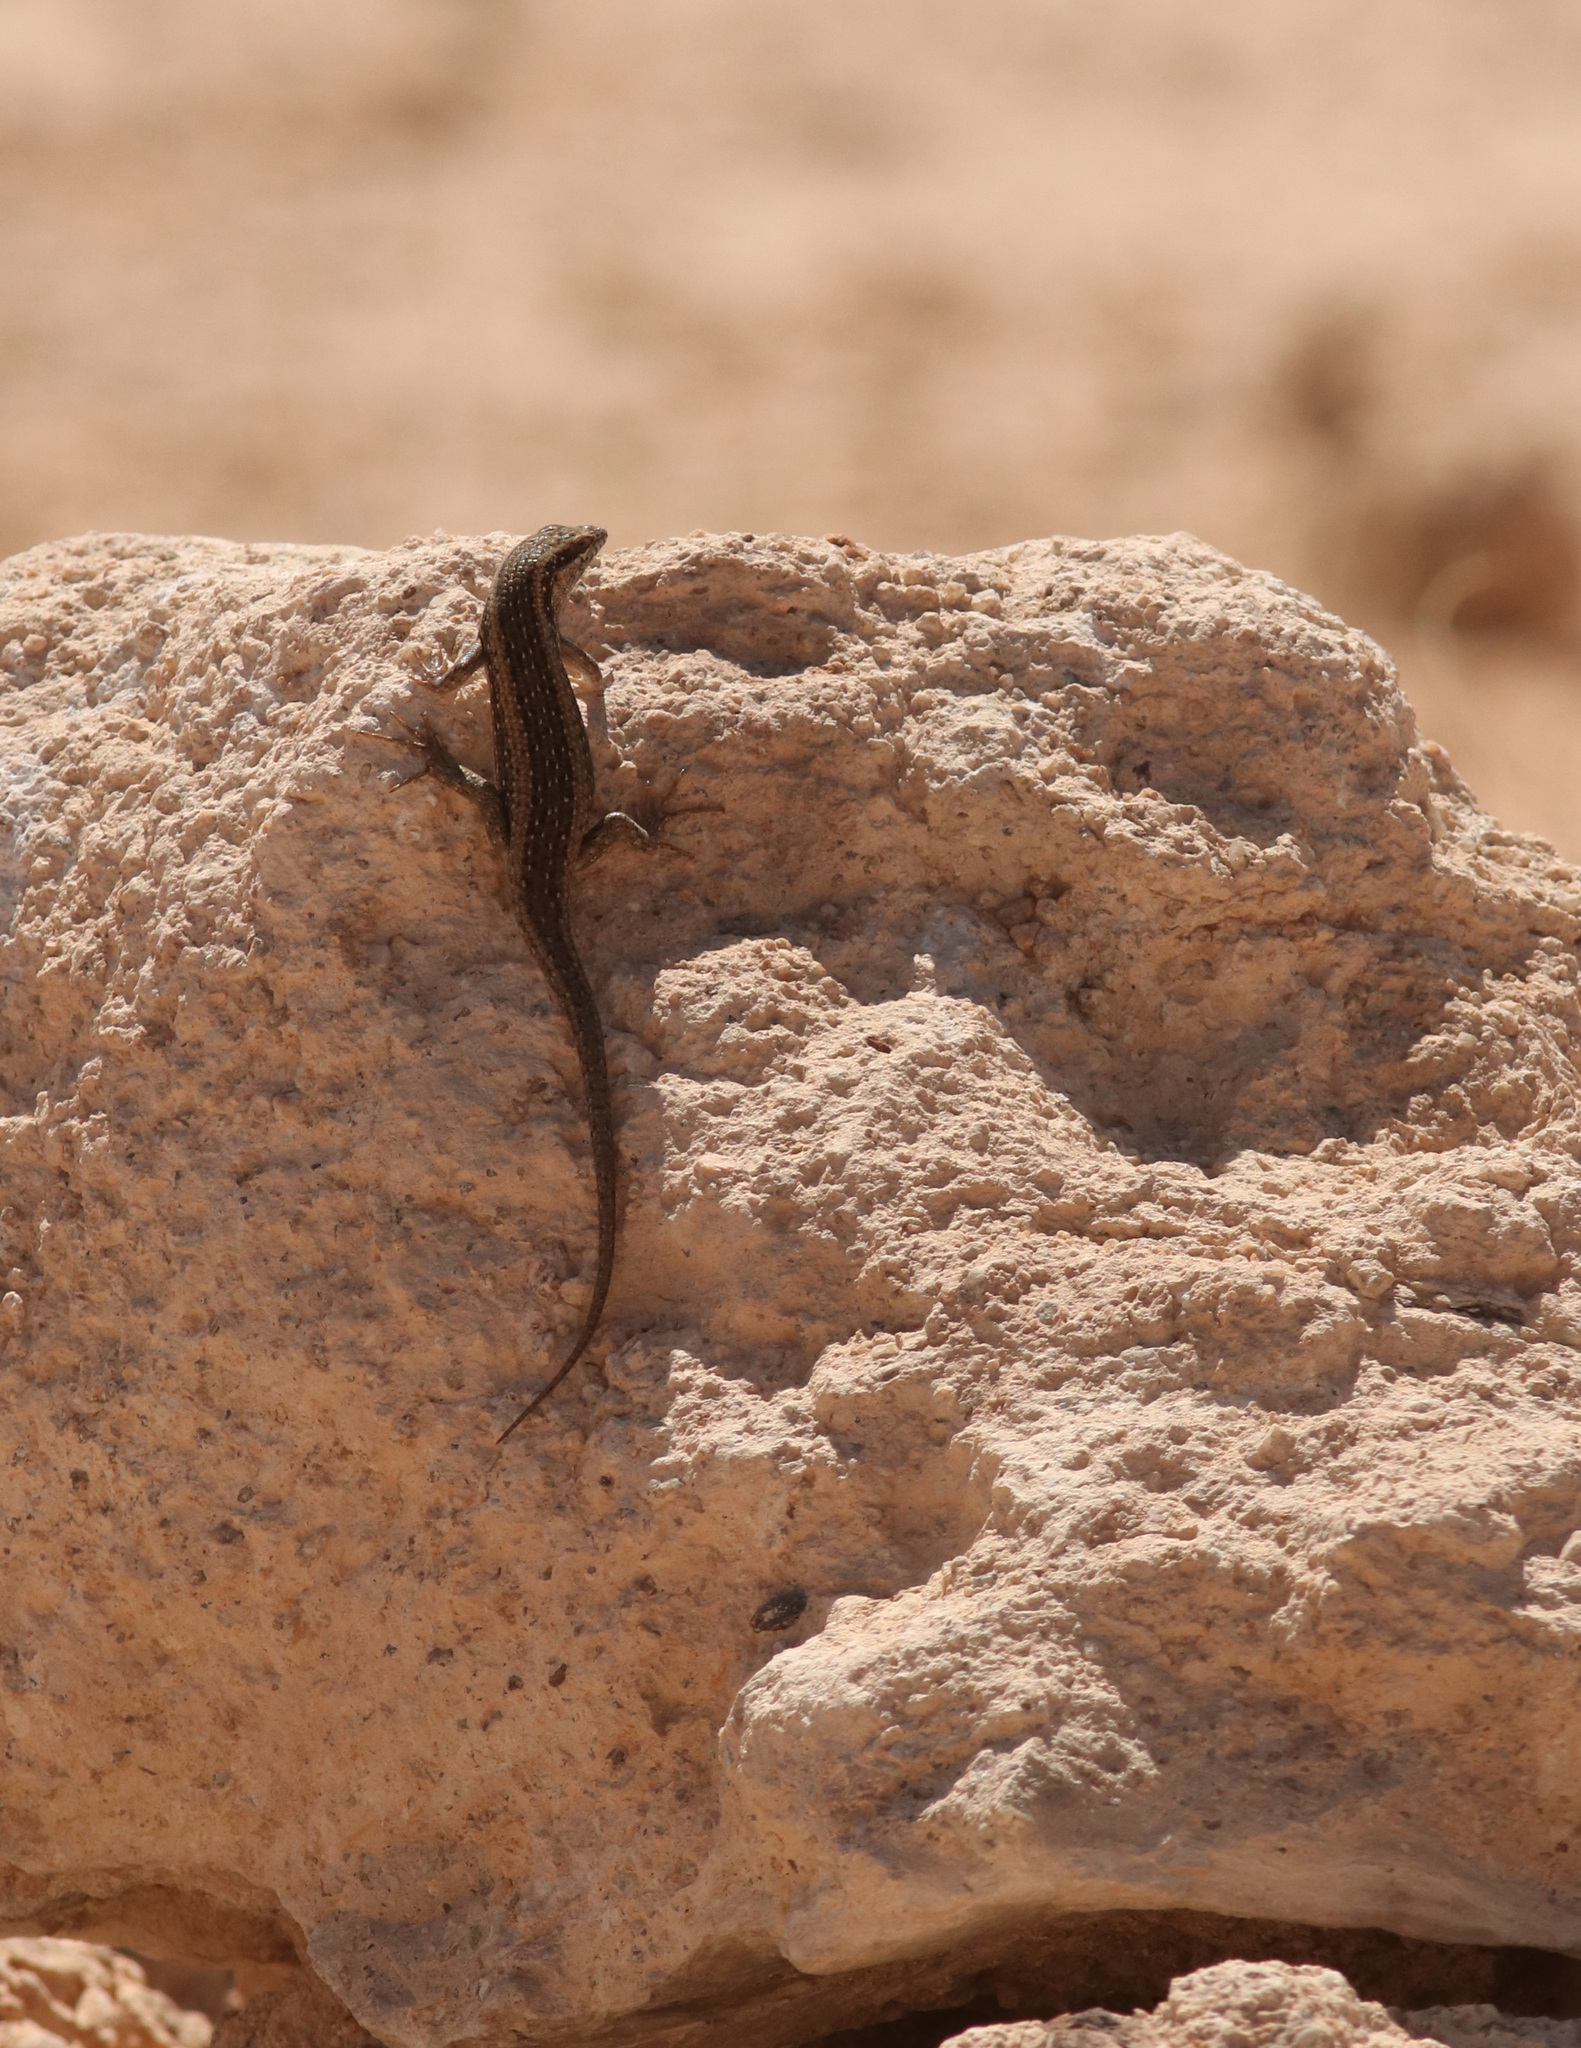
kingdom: Animalia
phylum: Chordata
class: Squamata
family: Scincidae
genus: Trachylepis
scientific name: Trachylepis spilogaster
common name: Kalahari tree skink
